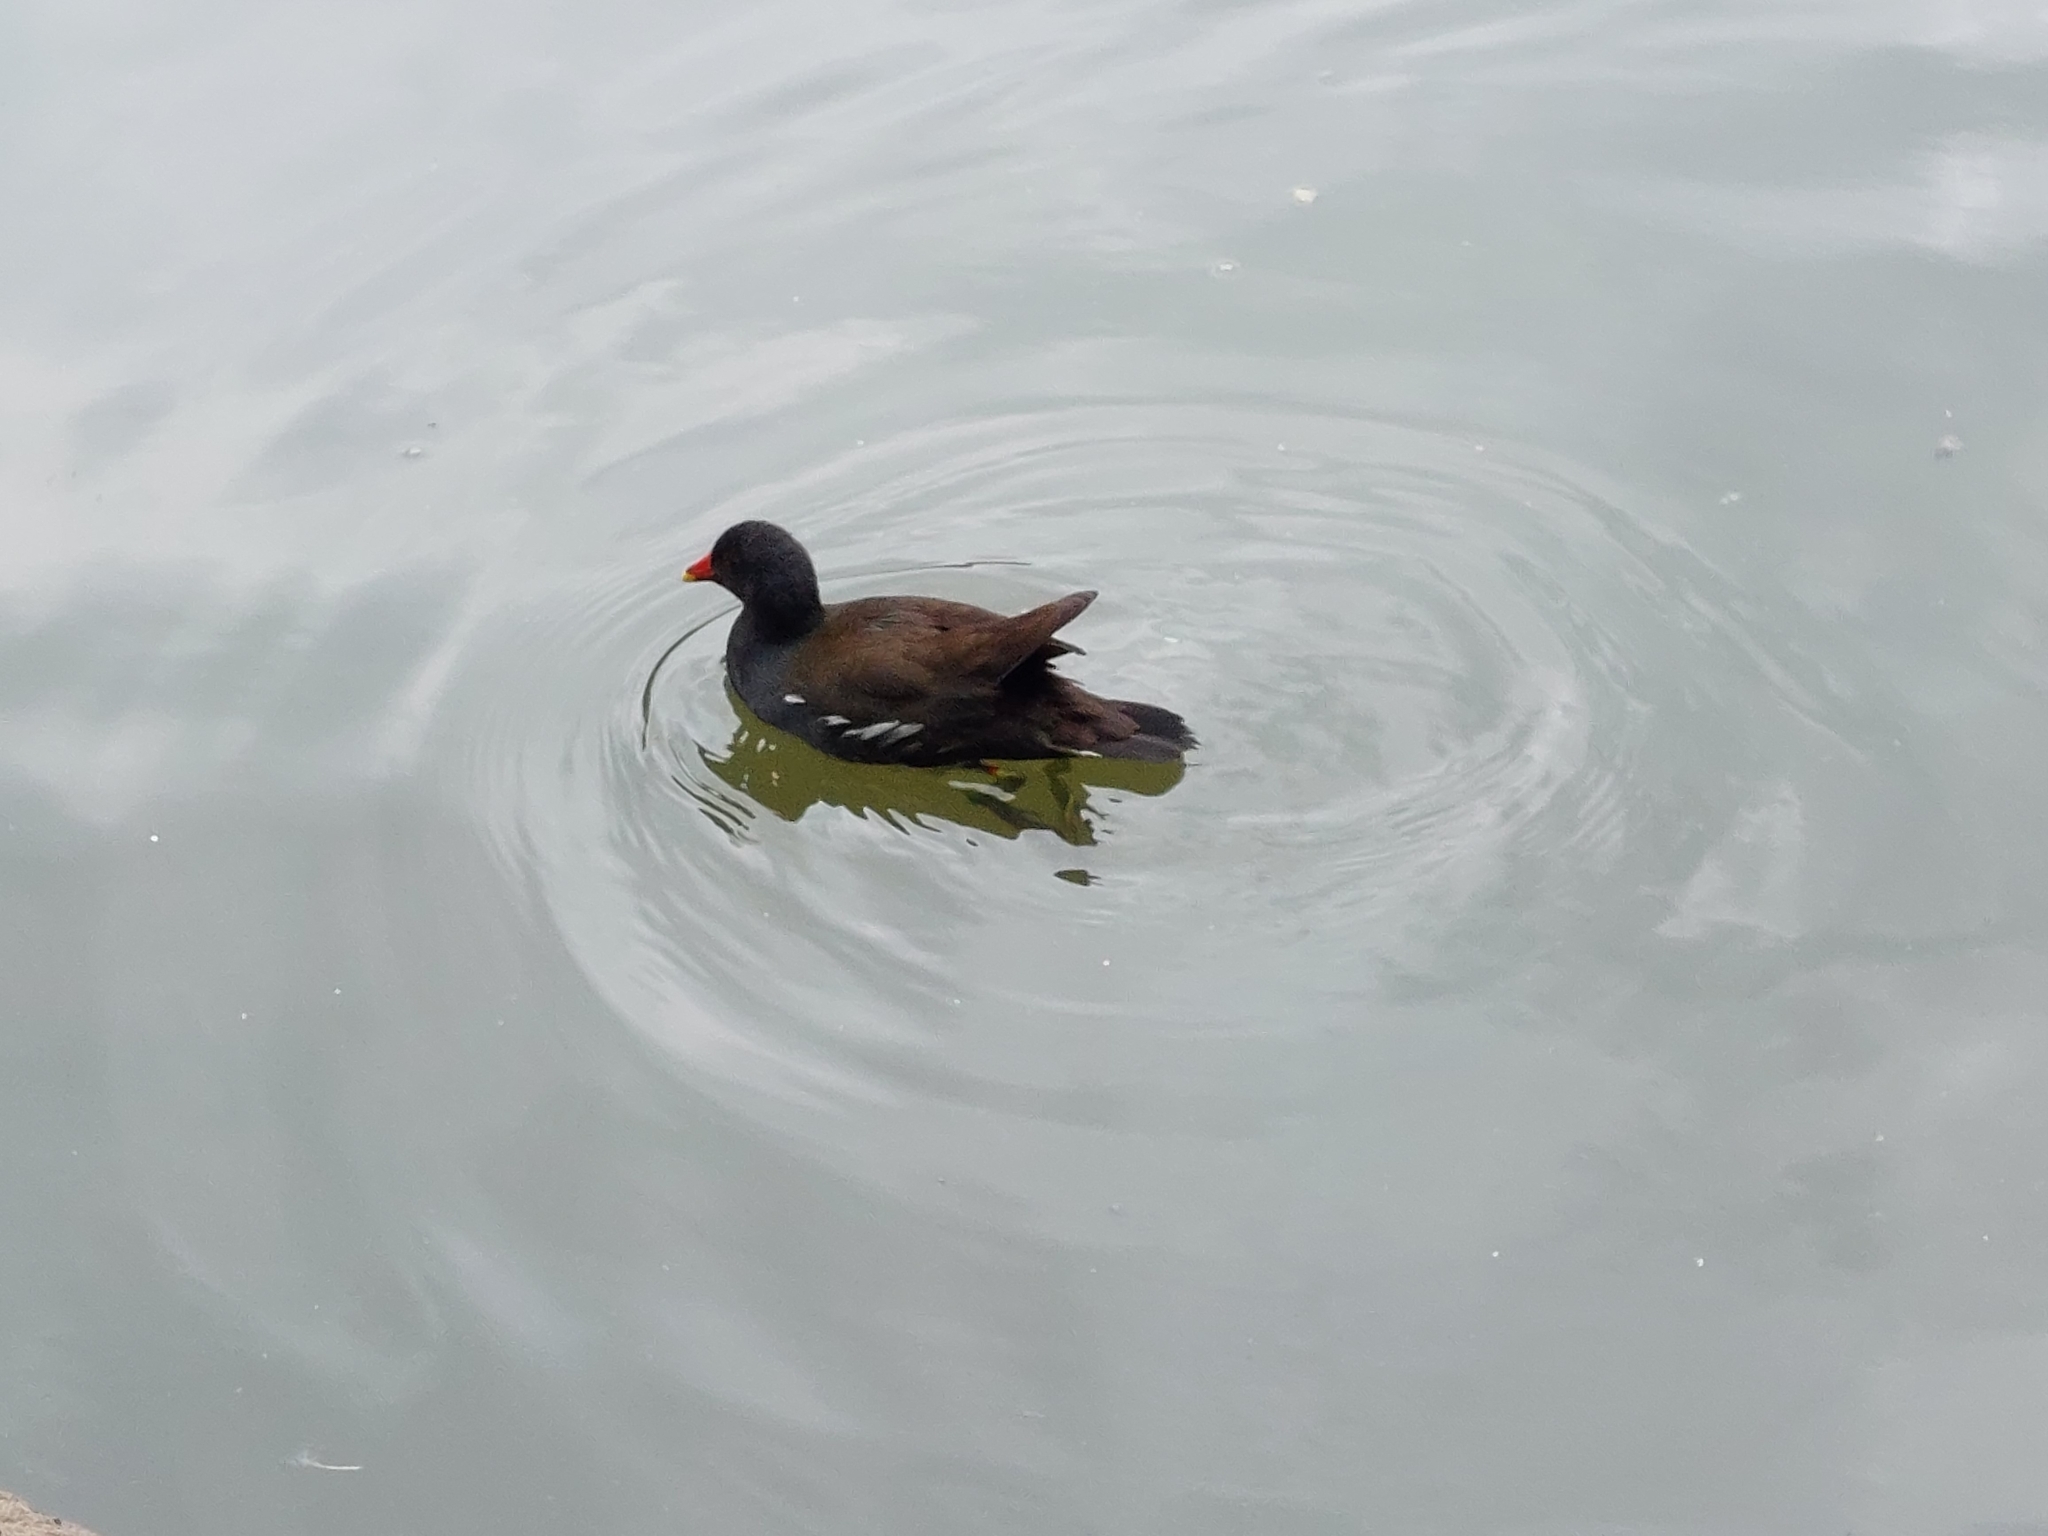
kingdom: Animalia
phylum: Chordata
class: Aves
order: Gruiformes
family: Rallidae
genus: Gallinula
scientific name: Gallinula chloropus
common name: Common moorhen
